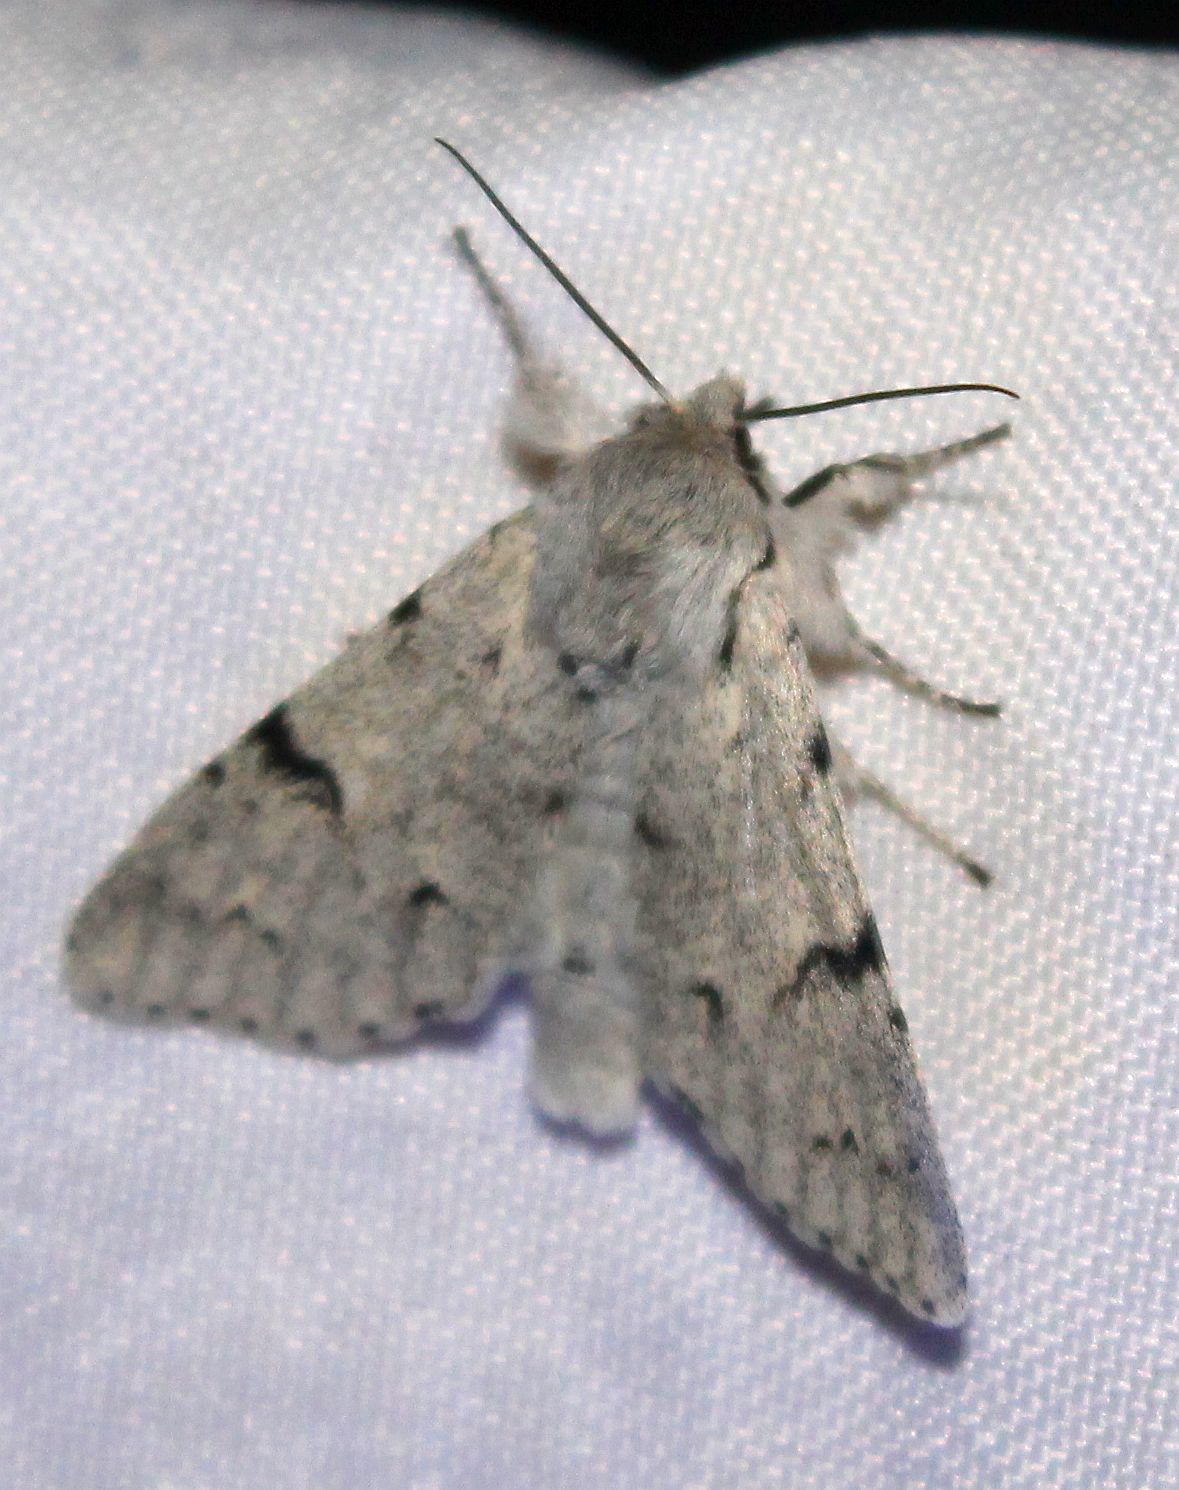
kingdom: Animalia
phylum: Arthropoda
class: Insecta
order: Lepidoptera
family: Noctuidae
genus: Acronicta
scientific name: Acronicta leporina
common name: Miller
